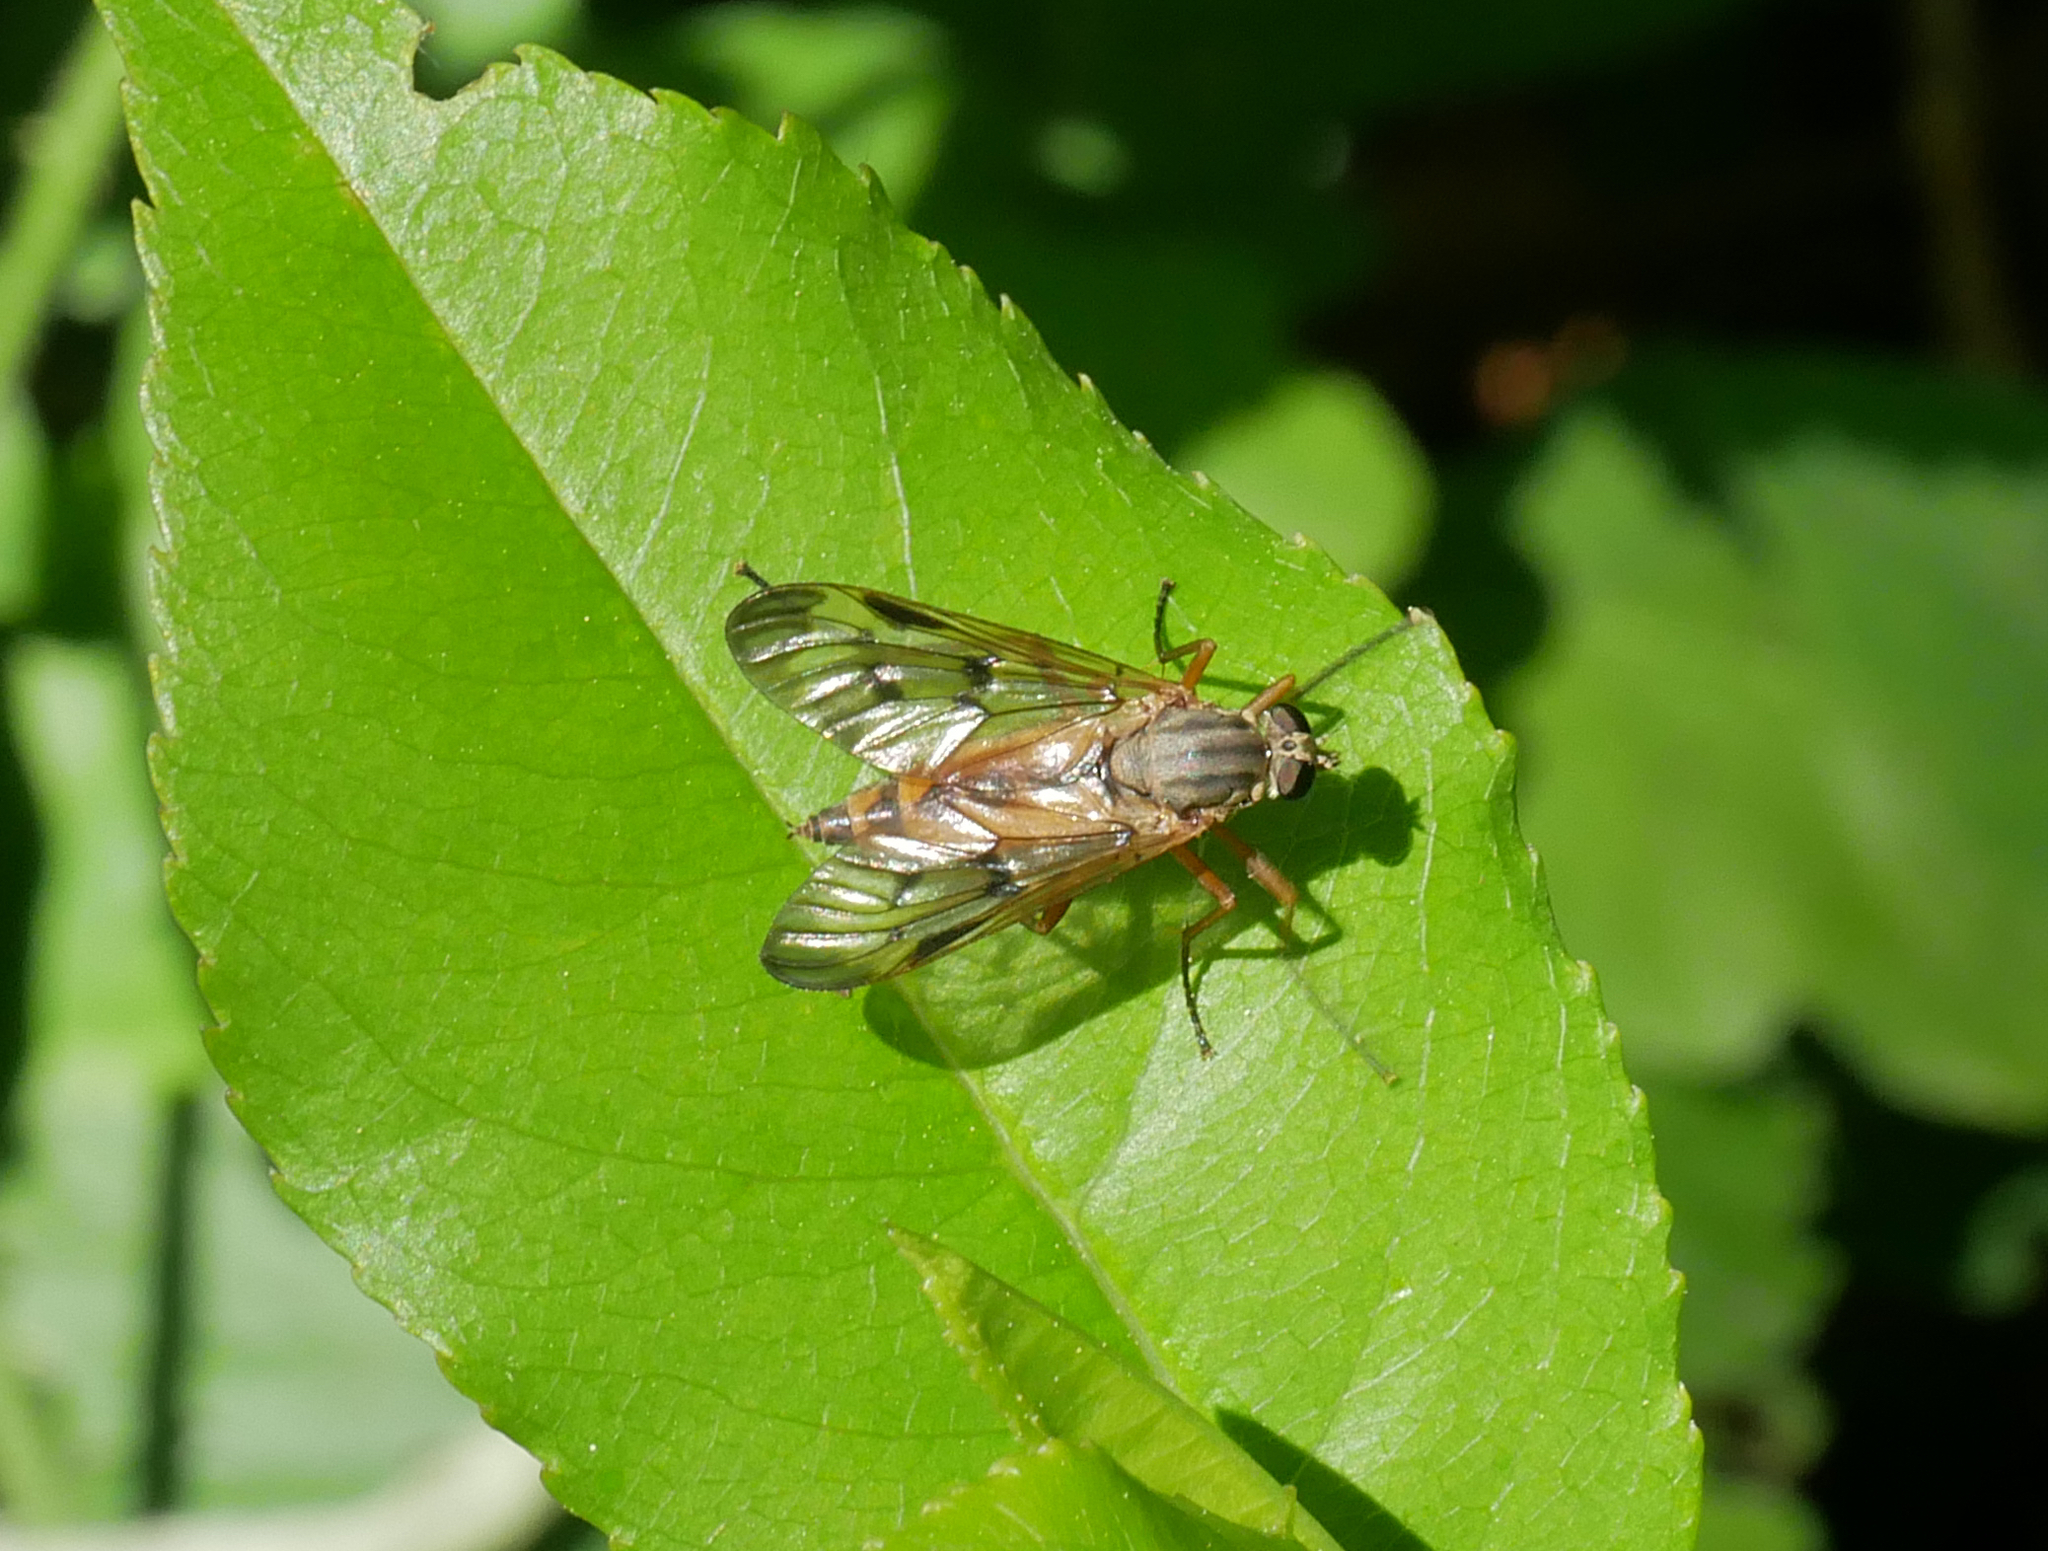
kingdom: Animalia
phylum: Arthropoda
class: Insecta
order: Diptera
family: Rhagionidae
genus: Rhagio
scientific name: Rhagio scolopacea
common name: Downlooker snipefly
